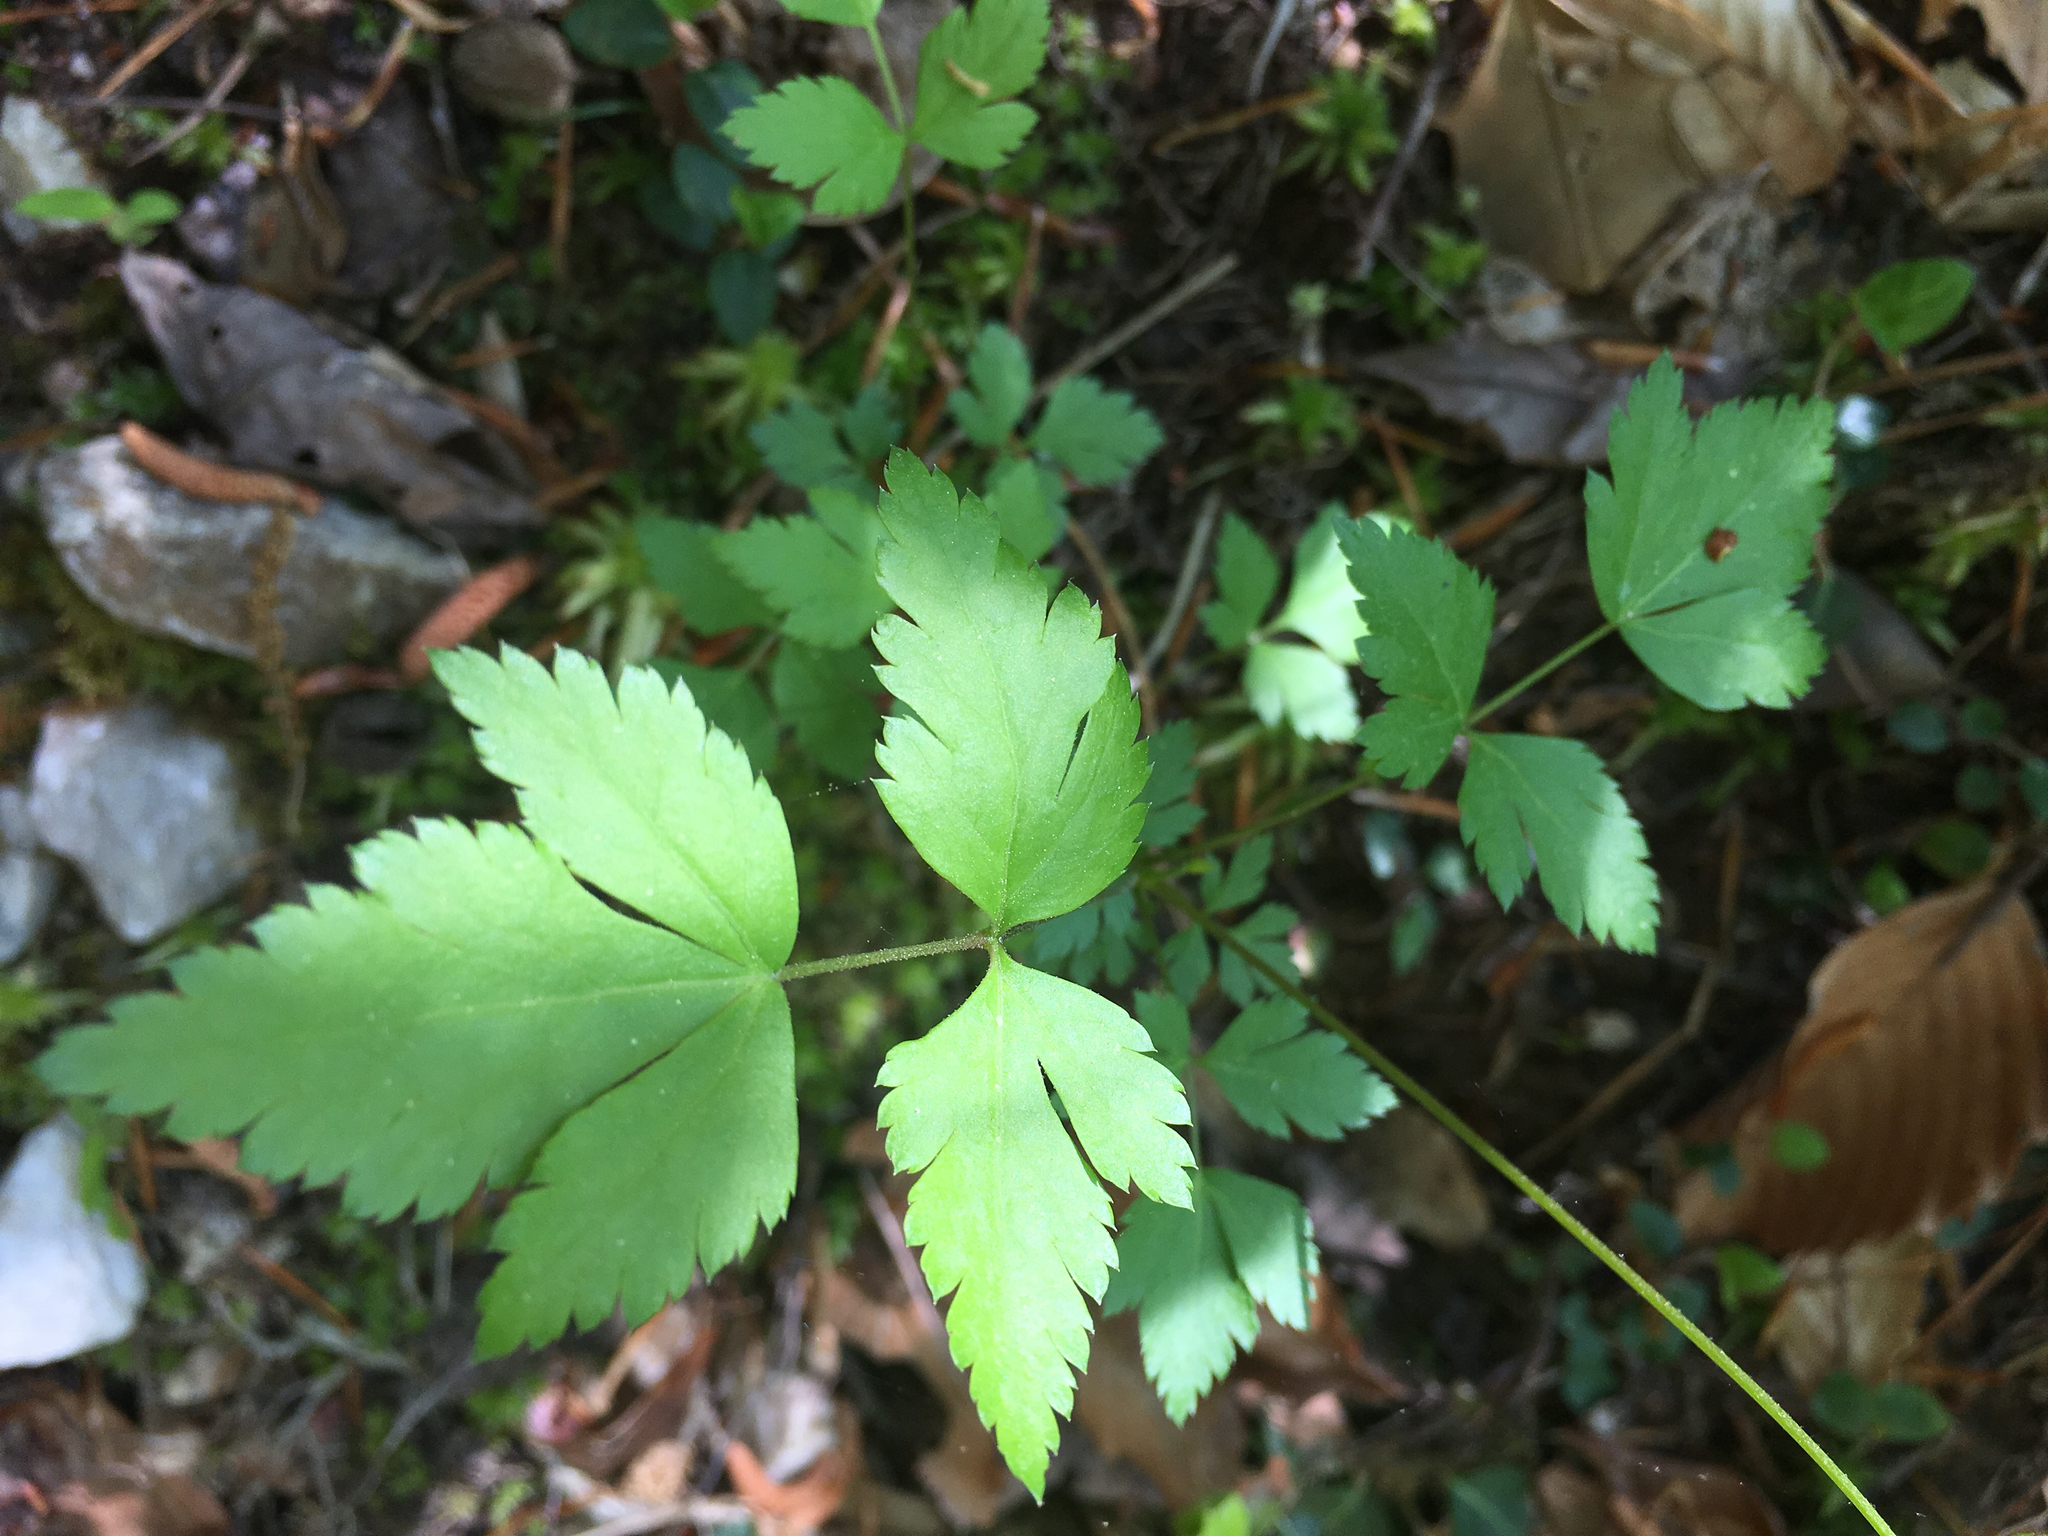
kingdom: Plantae
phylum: Tracheophyta
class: Magnoliopsida
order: Ranunculales
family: Ranunculaceae
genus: Xanthorhiza
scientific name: Xanthorhiza simplicissima
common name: Yellowroot
